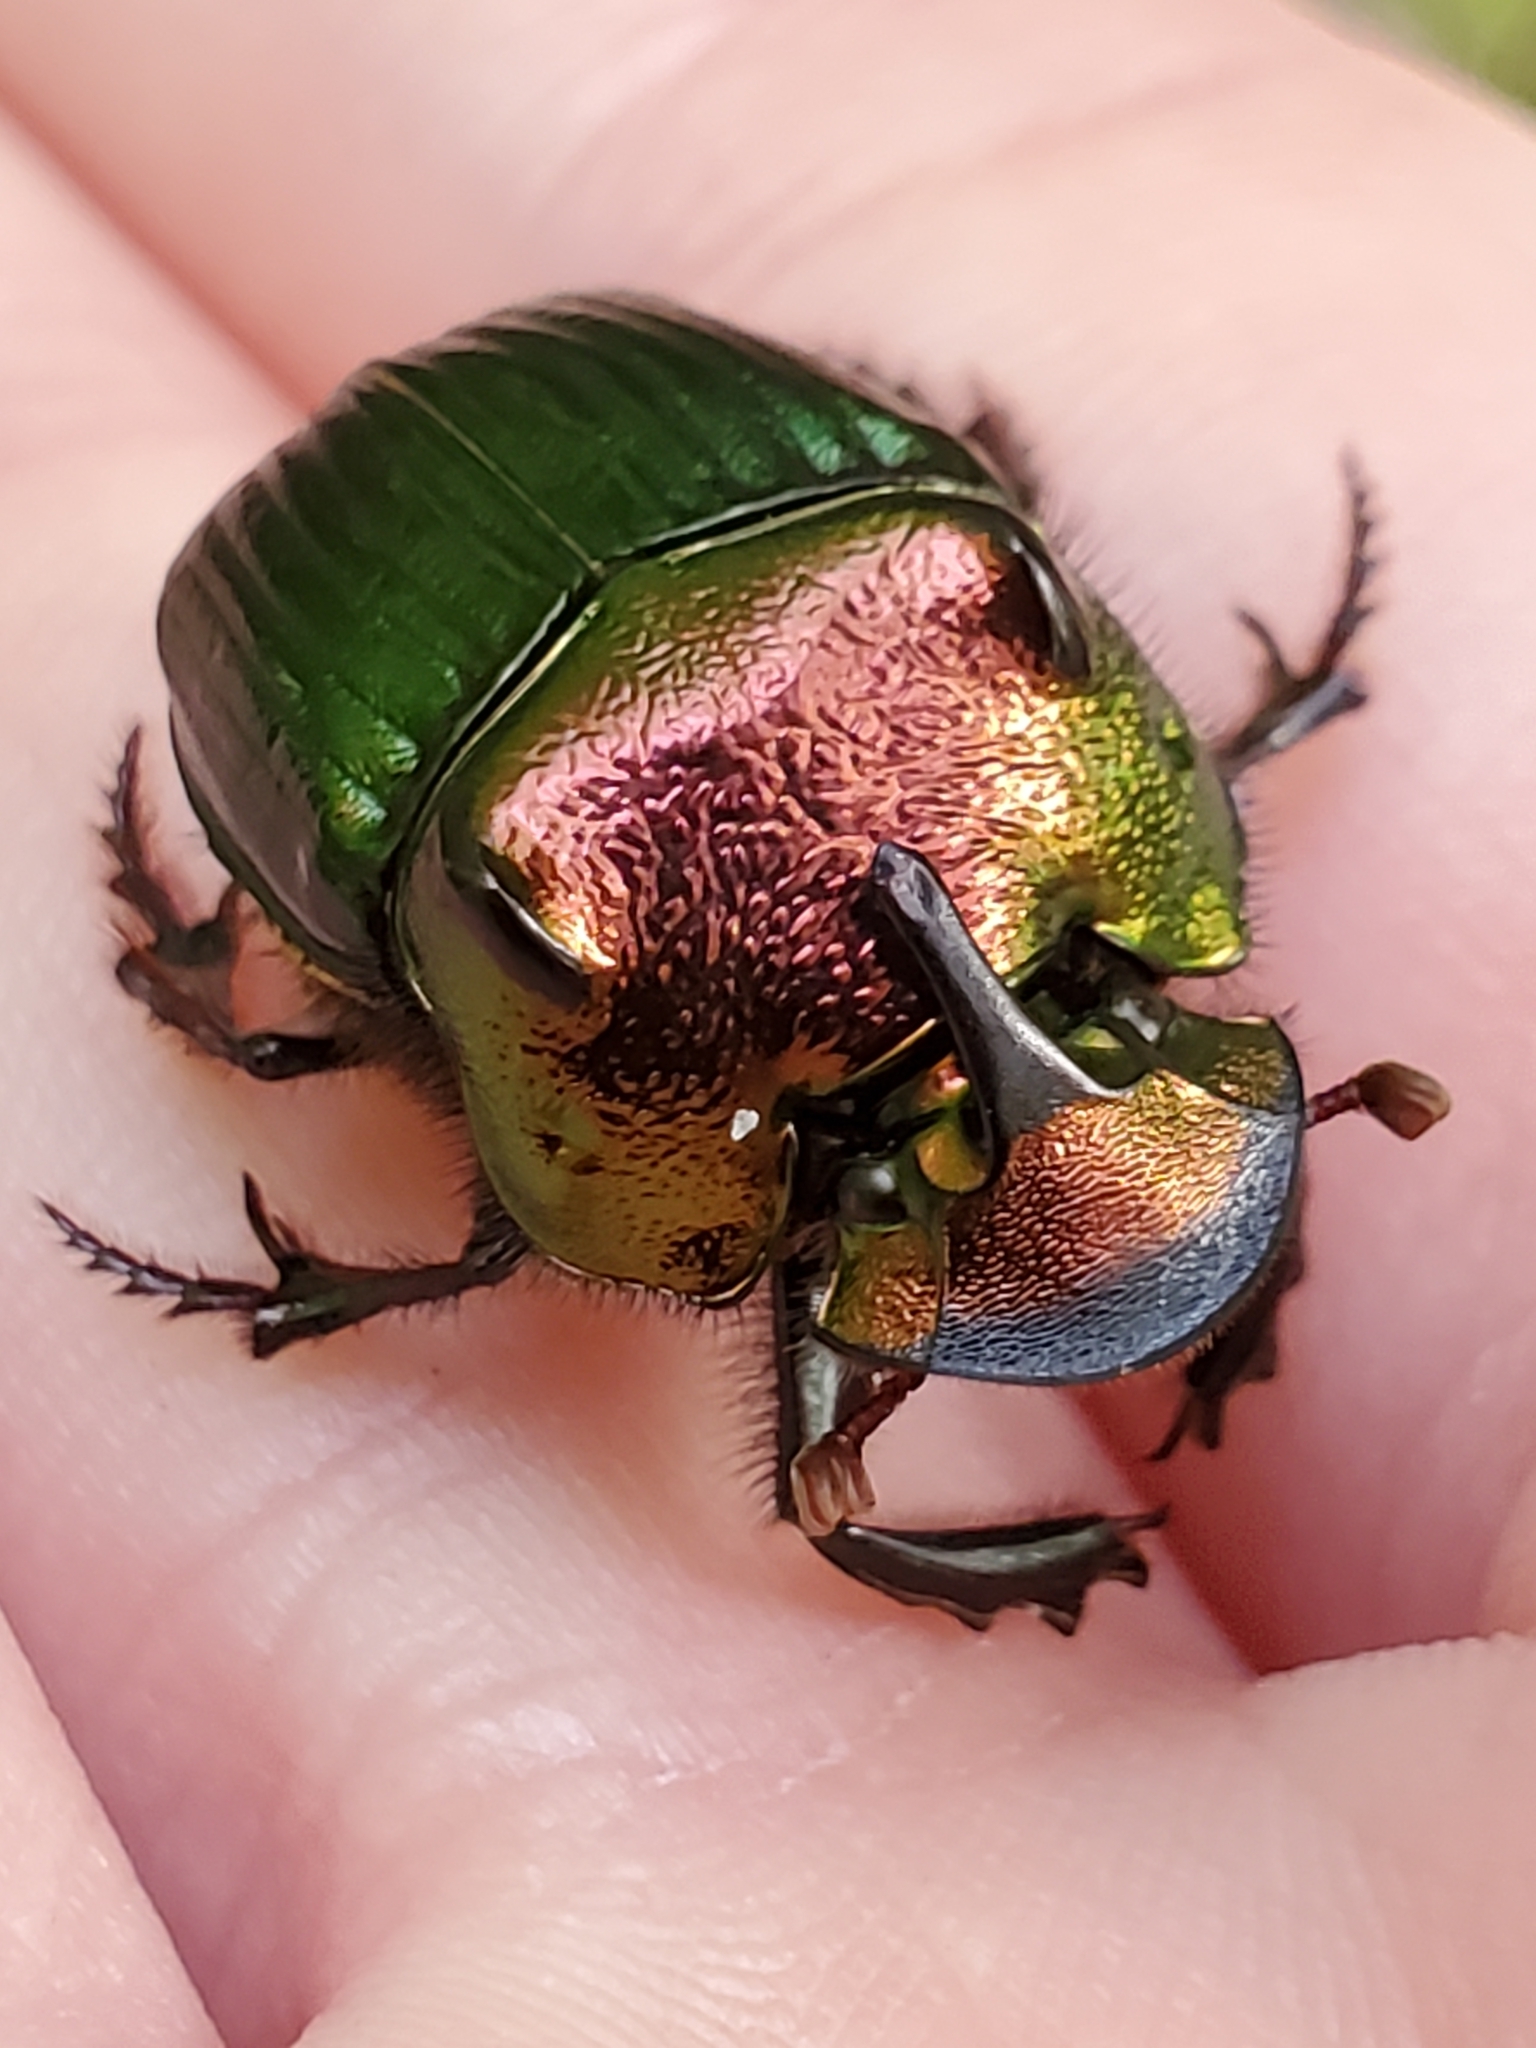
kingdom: Animalia
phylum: Arthropoda
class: Insecta
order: Coleoptera
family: Scarabaeidae
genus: Phanaeus
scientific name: Phanaeus igneus
